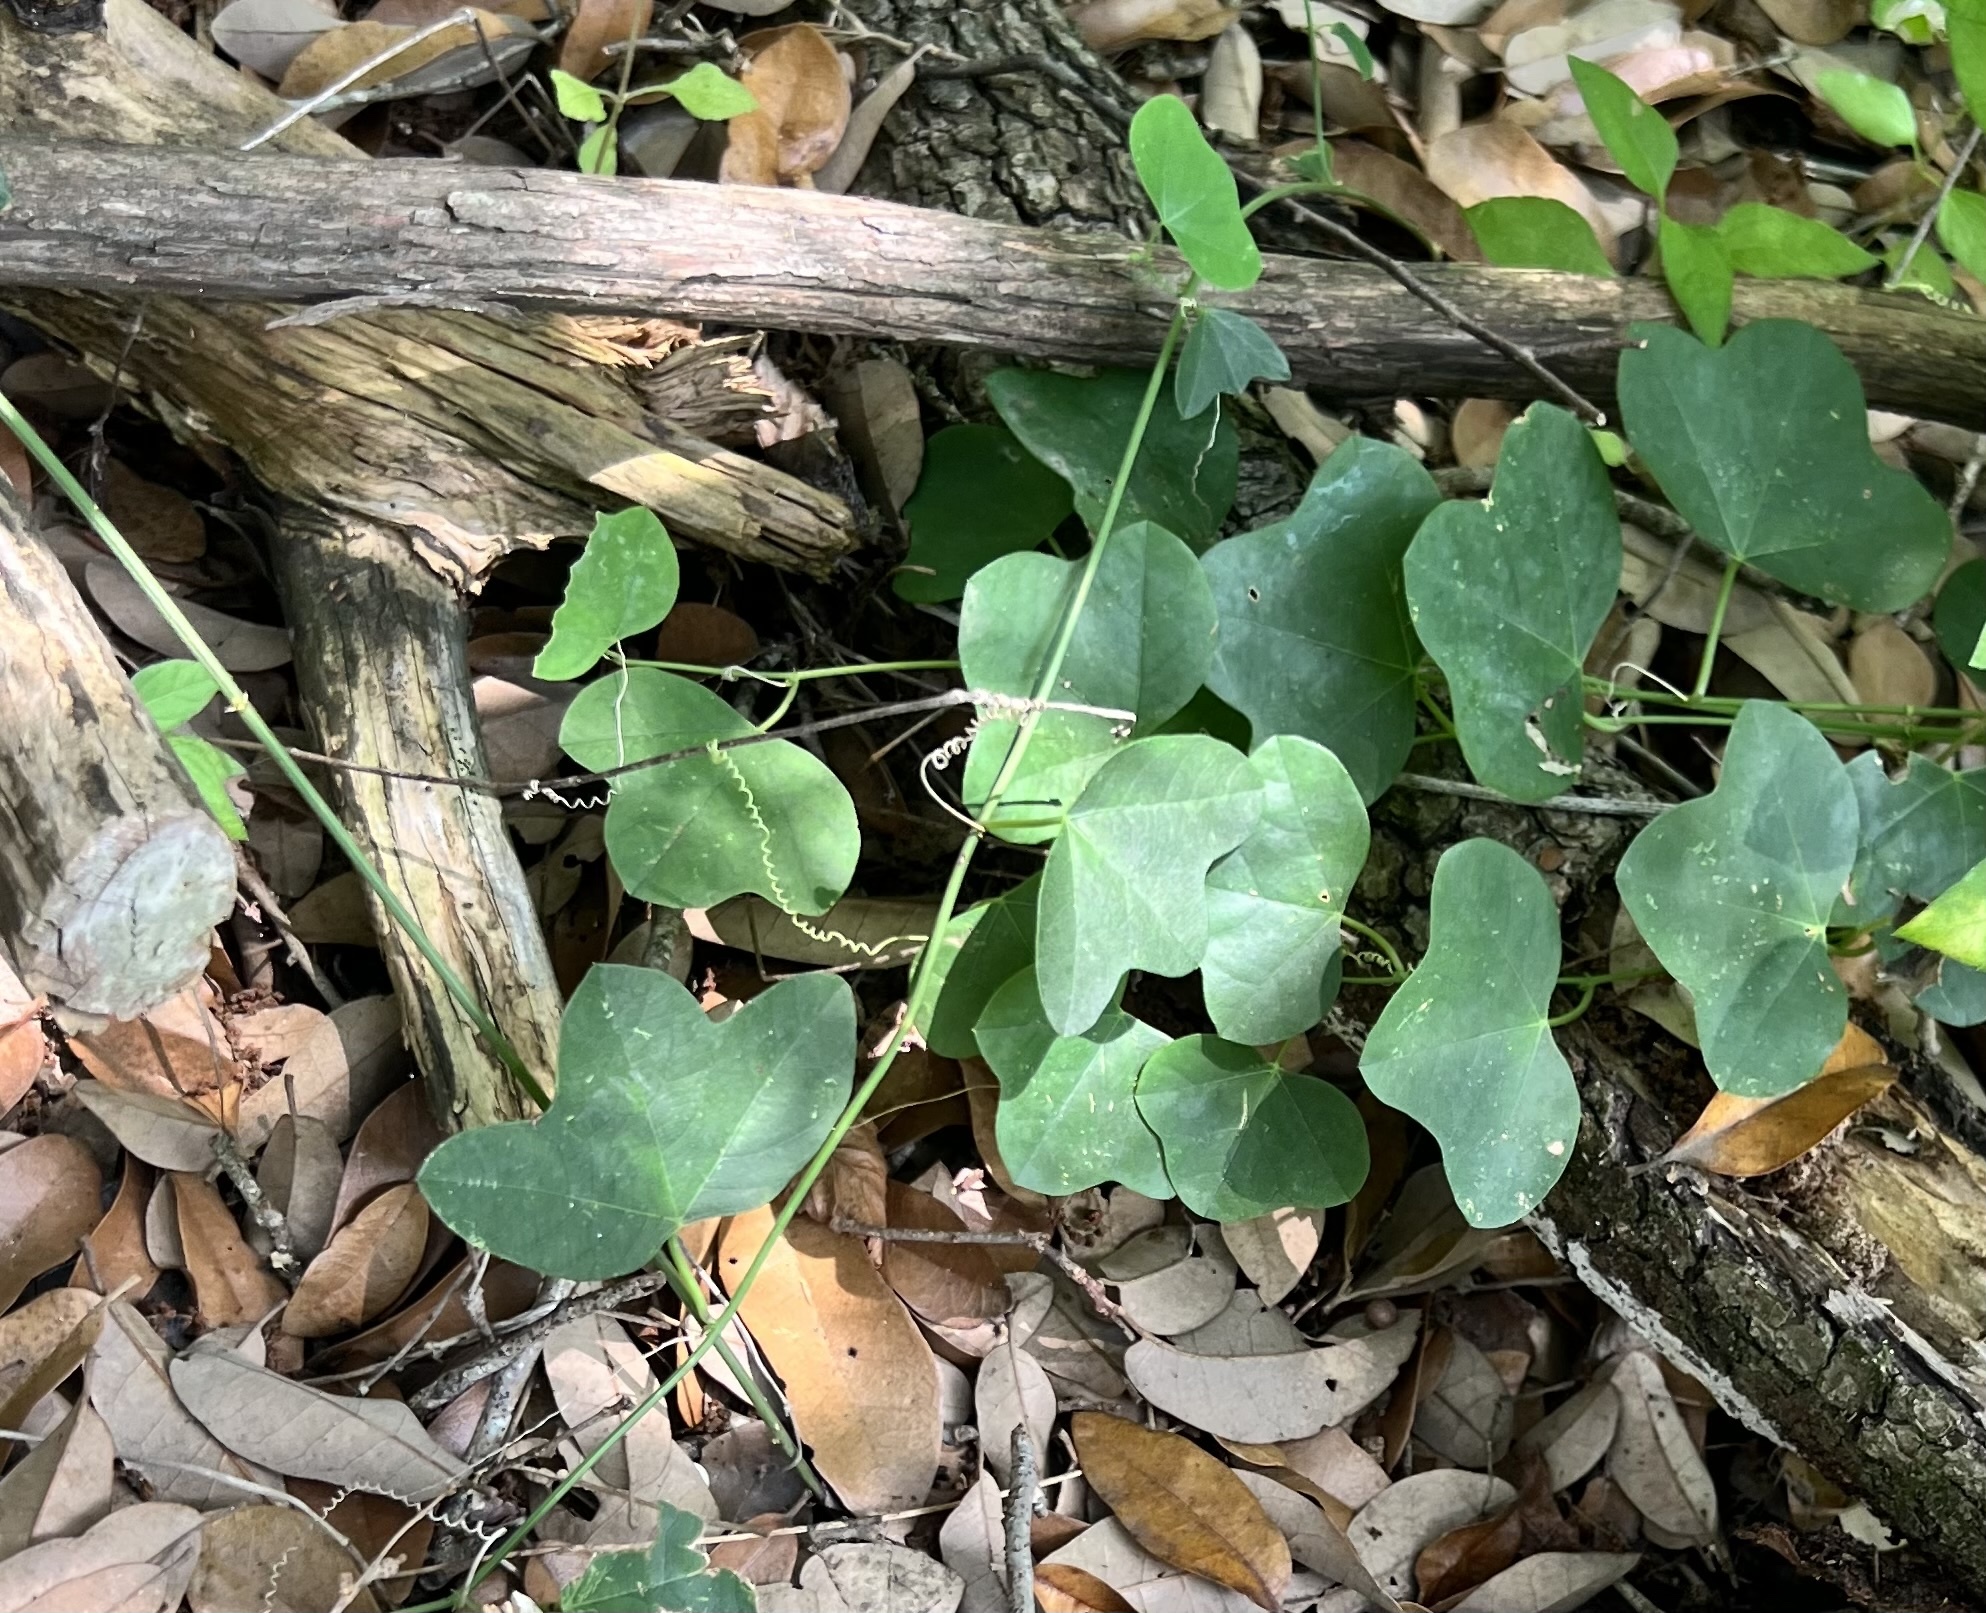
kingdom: Plantae
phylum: Tracheophyta
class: Magnoliopsida
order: Malpighiales
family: Passifloraceae
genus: Passiflora
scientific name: Passiflora lutea
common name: Yellow passionflower
